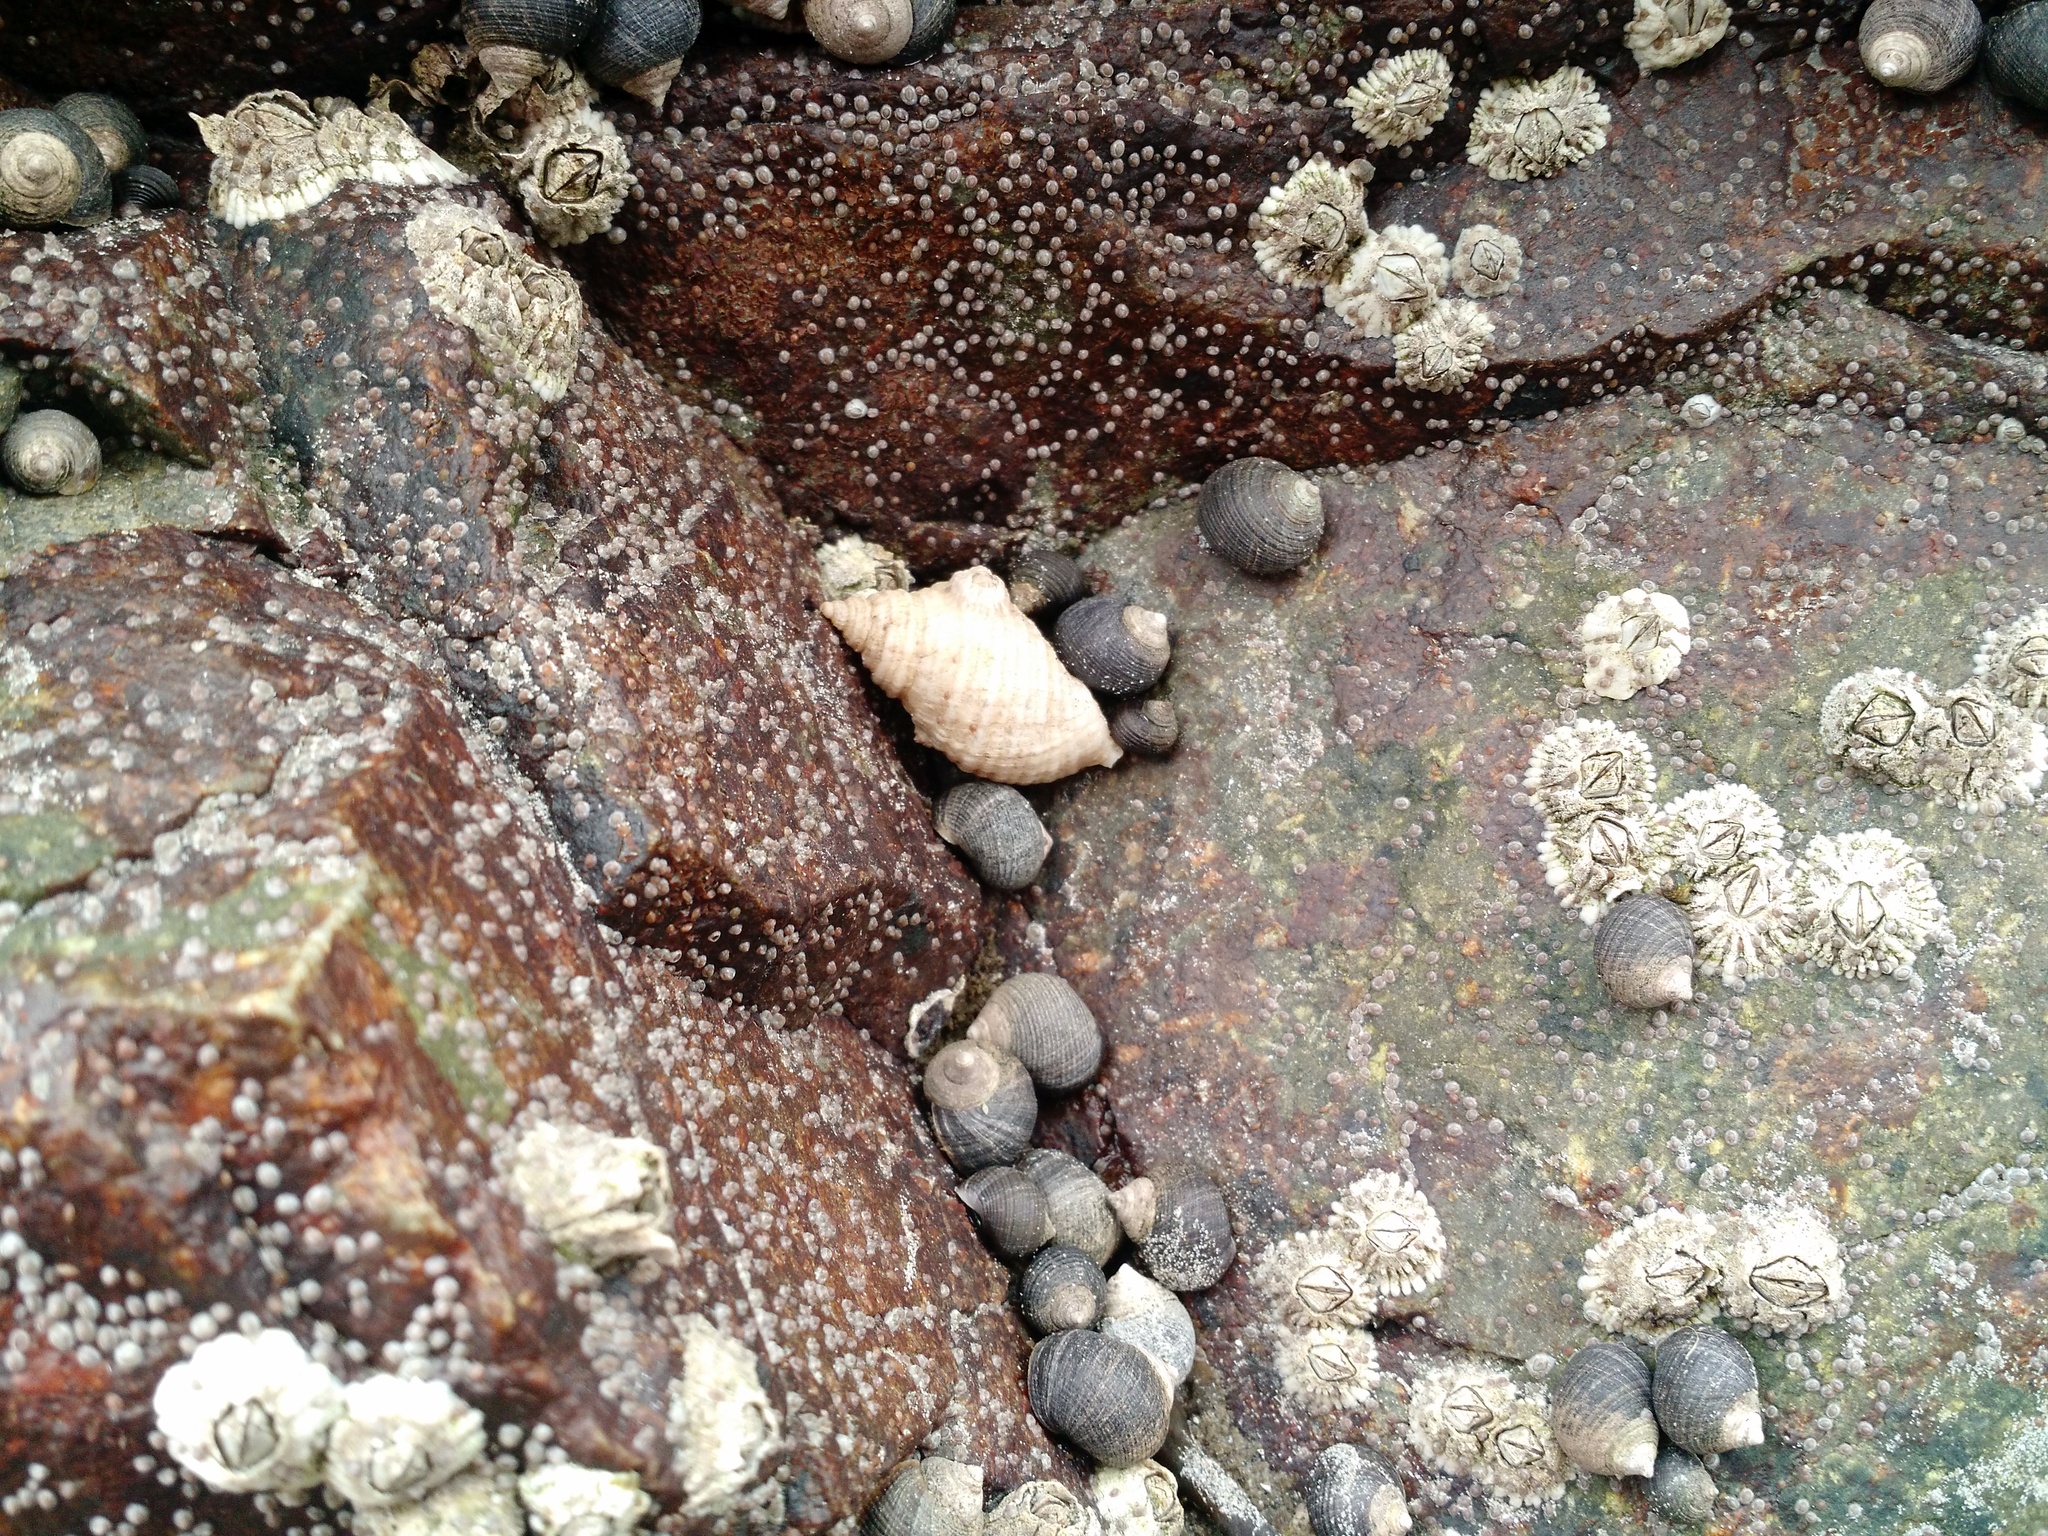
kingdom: Animalia
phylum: Mollusca
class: Gastropoda
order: Neogastropoda
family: Muricidae
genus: Nucella
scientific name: Nucella lapillus
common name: Dog whelk
